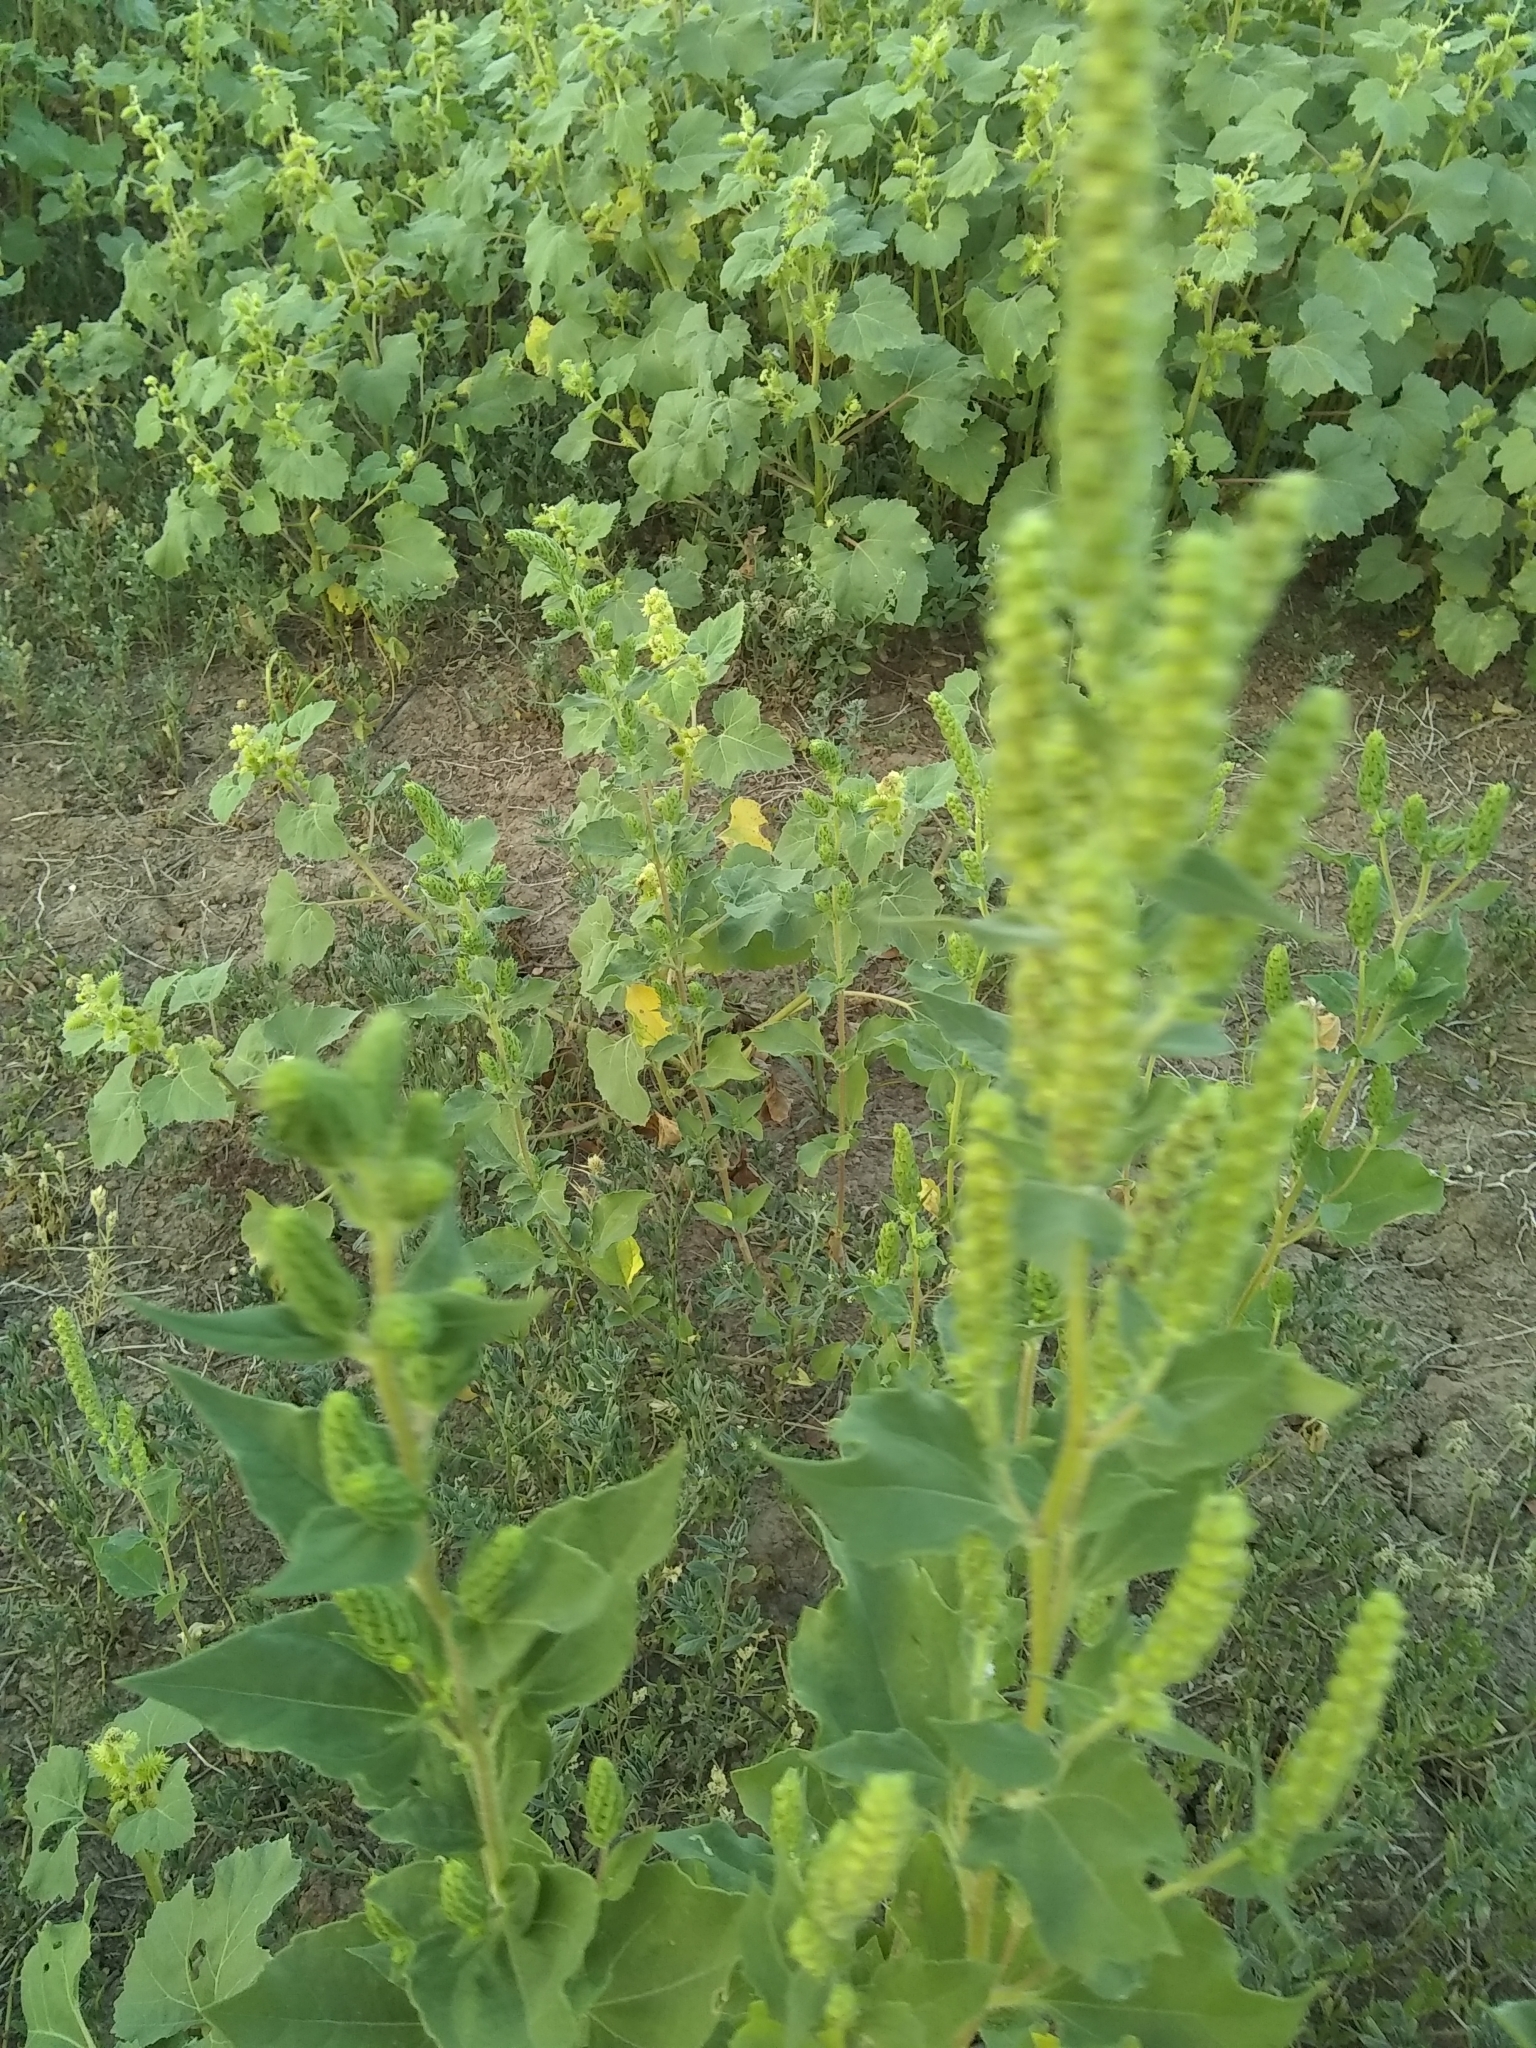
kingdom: Plantae
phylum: Tracheophyta
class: Magnoliopsida
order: Asterales
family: Asteraceae
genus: Iva
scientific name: Iva annua
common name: Marsh-elder
